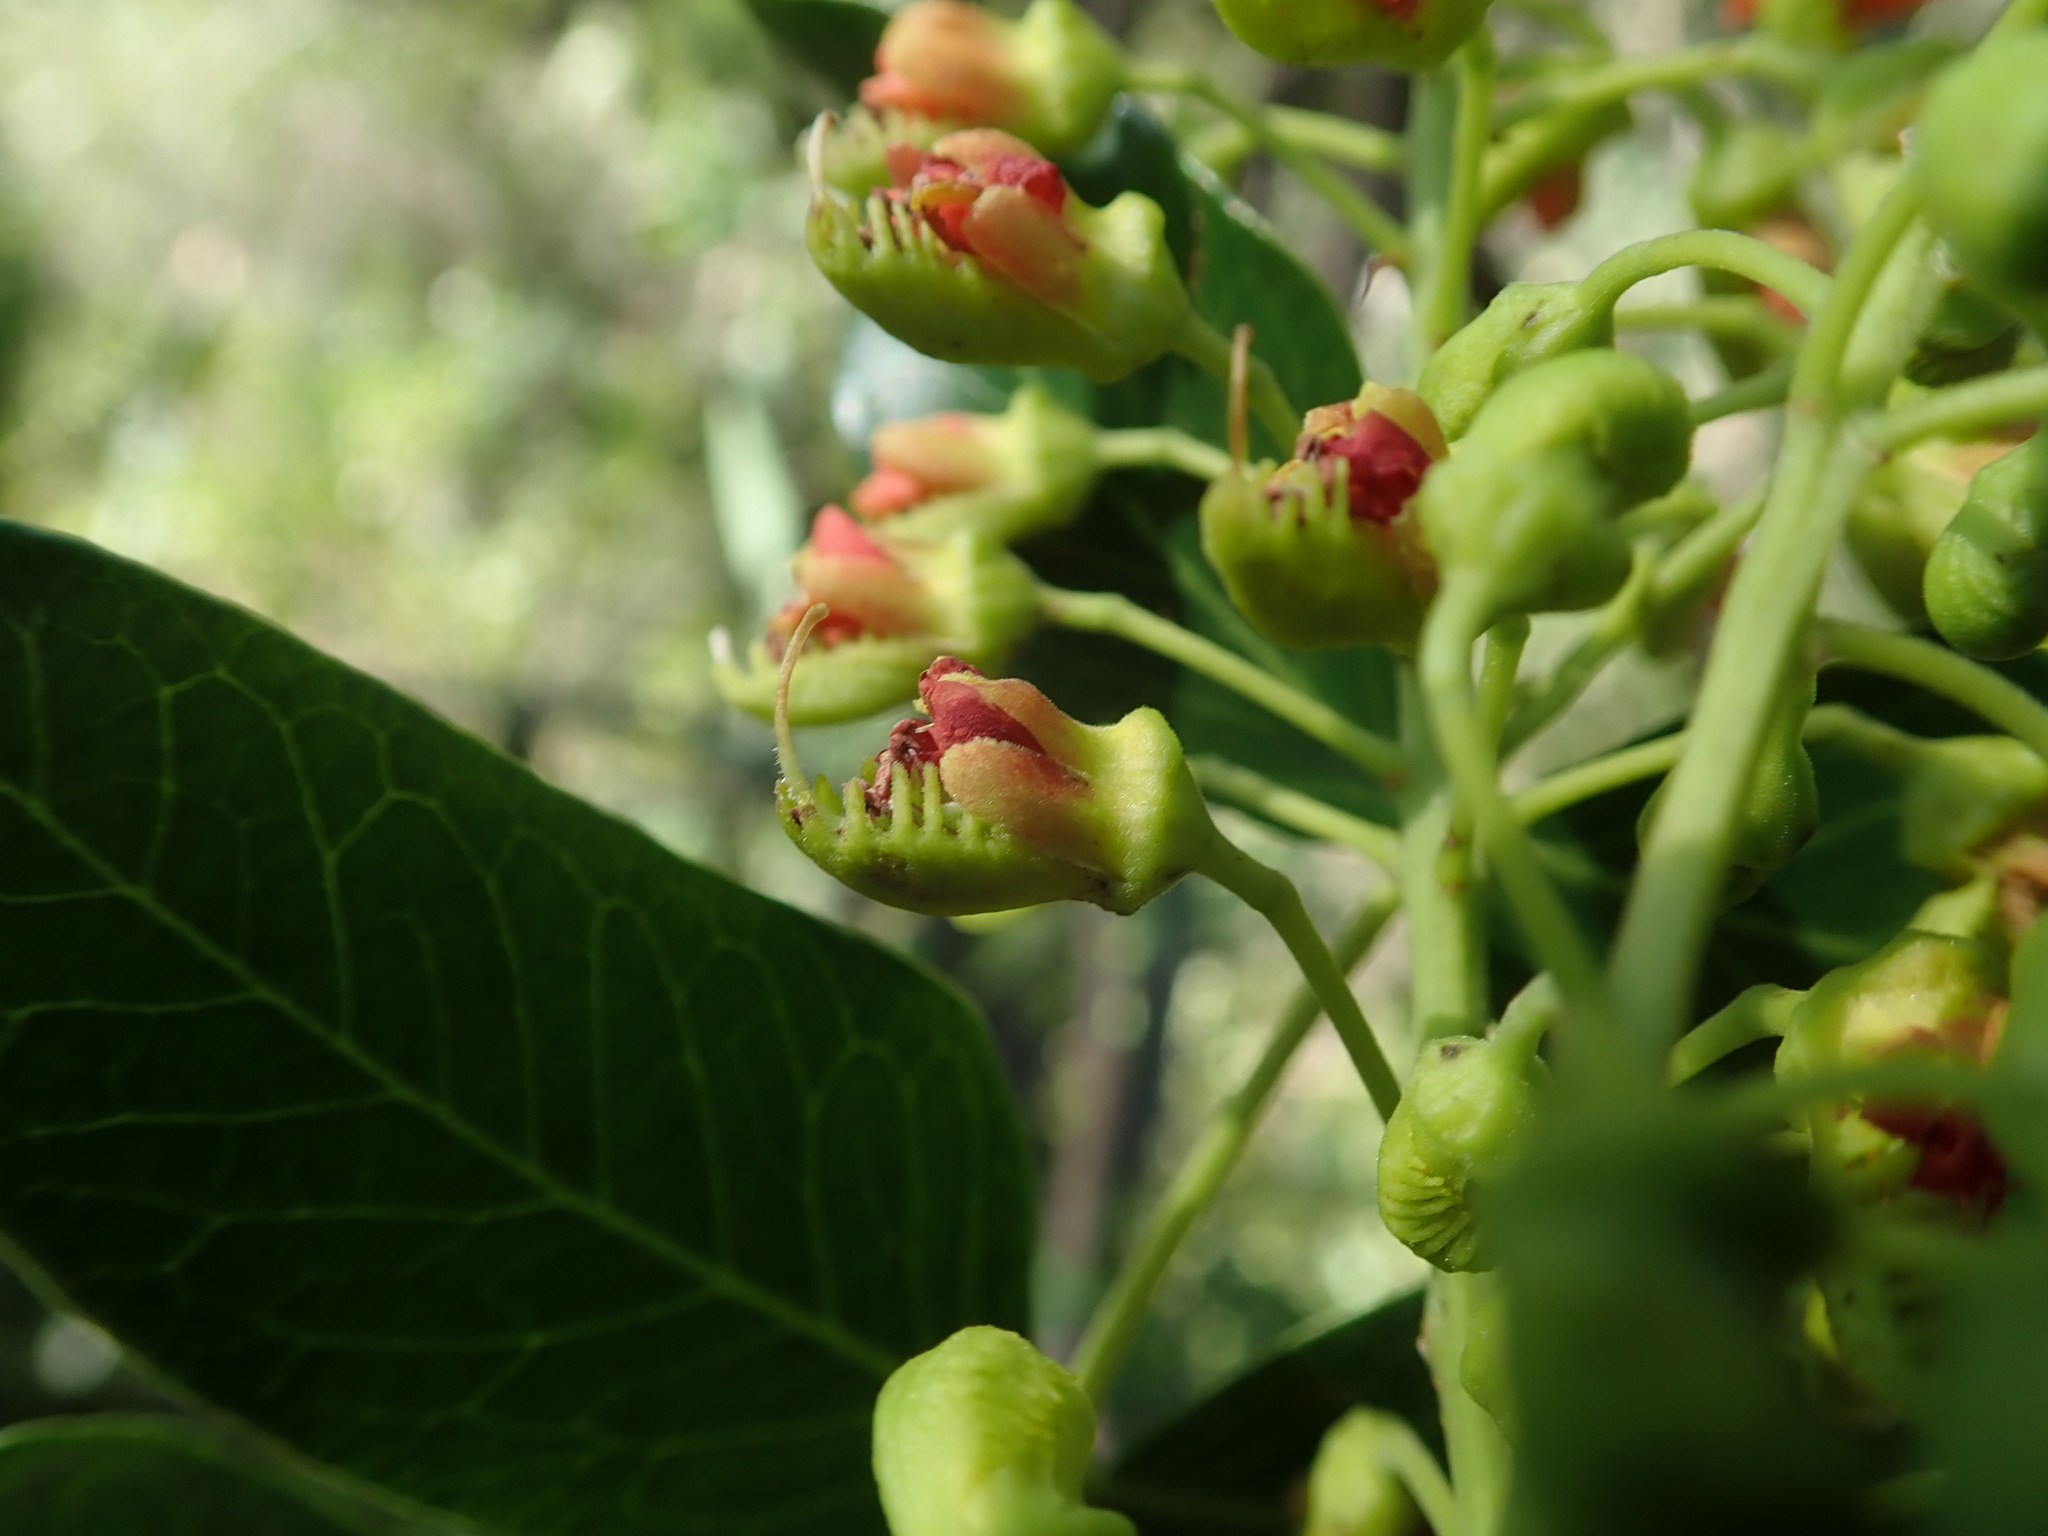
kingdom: Plantae
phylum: Tracheophyta
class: Magnoliopsida
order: Fabales
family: Fabaceae
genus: Tara
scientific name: Tara spinosa
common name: Spiny holdback
